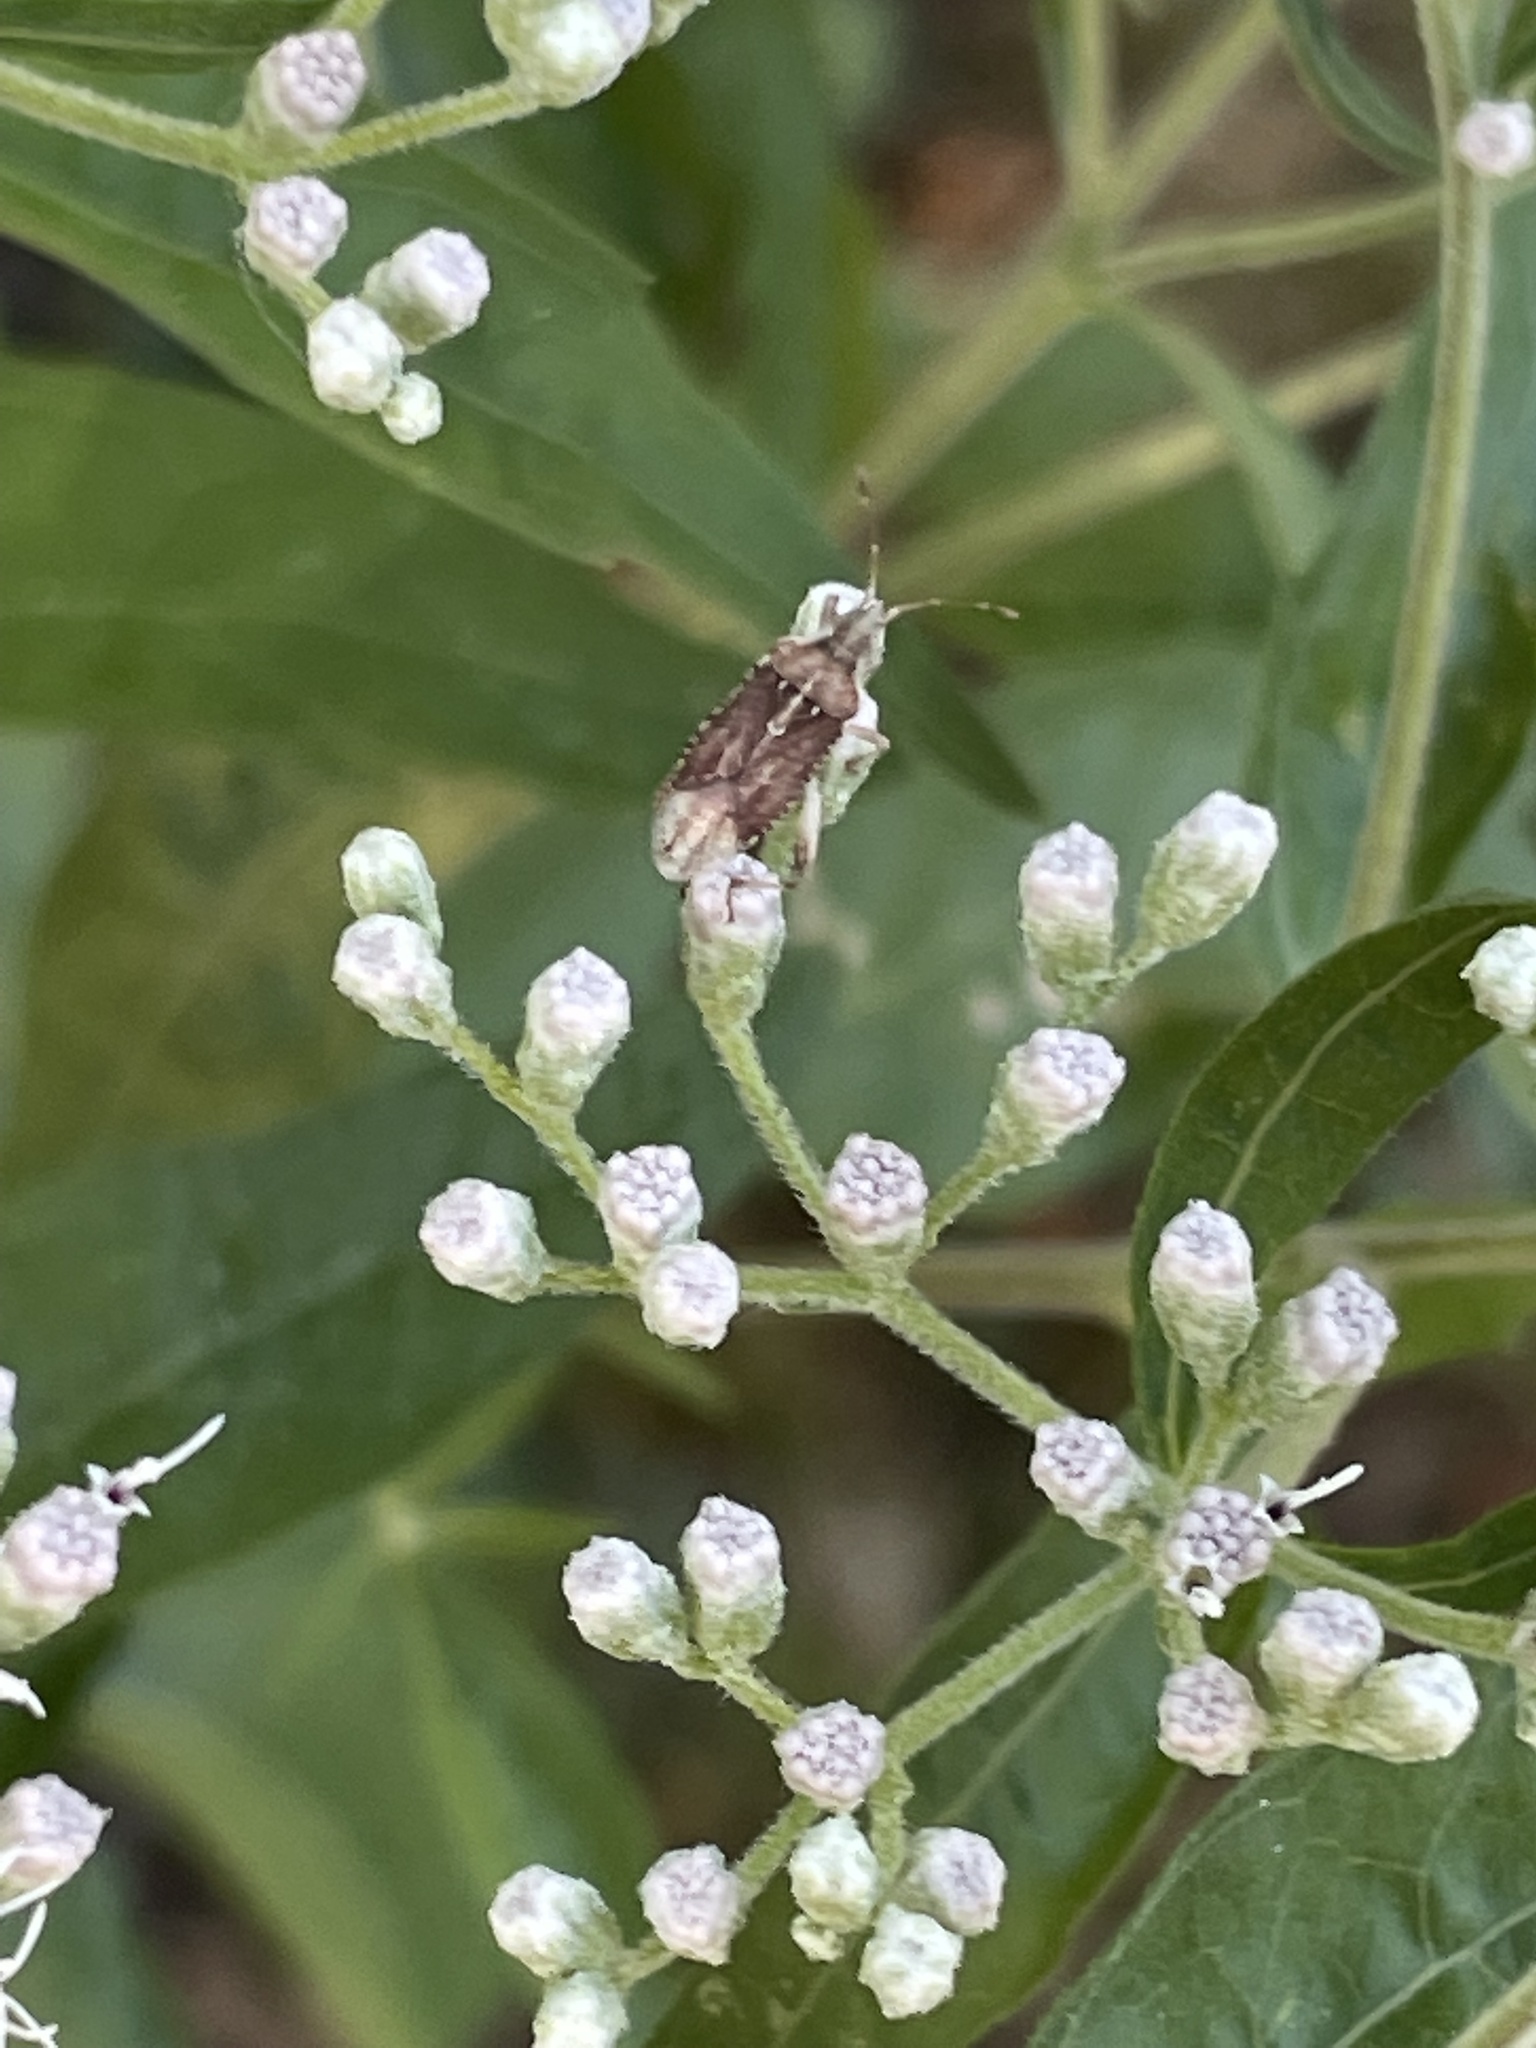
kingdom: Animalia
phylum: Arthropoda
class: Insecta
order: Hemiptera
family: Rhopalidae
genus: Harmostes
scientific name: Harmostes fraterculus
